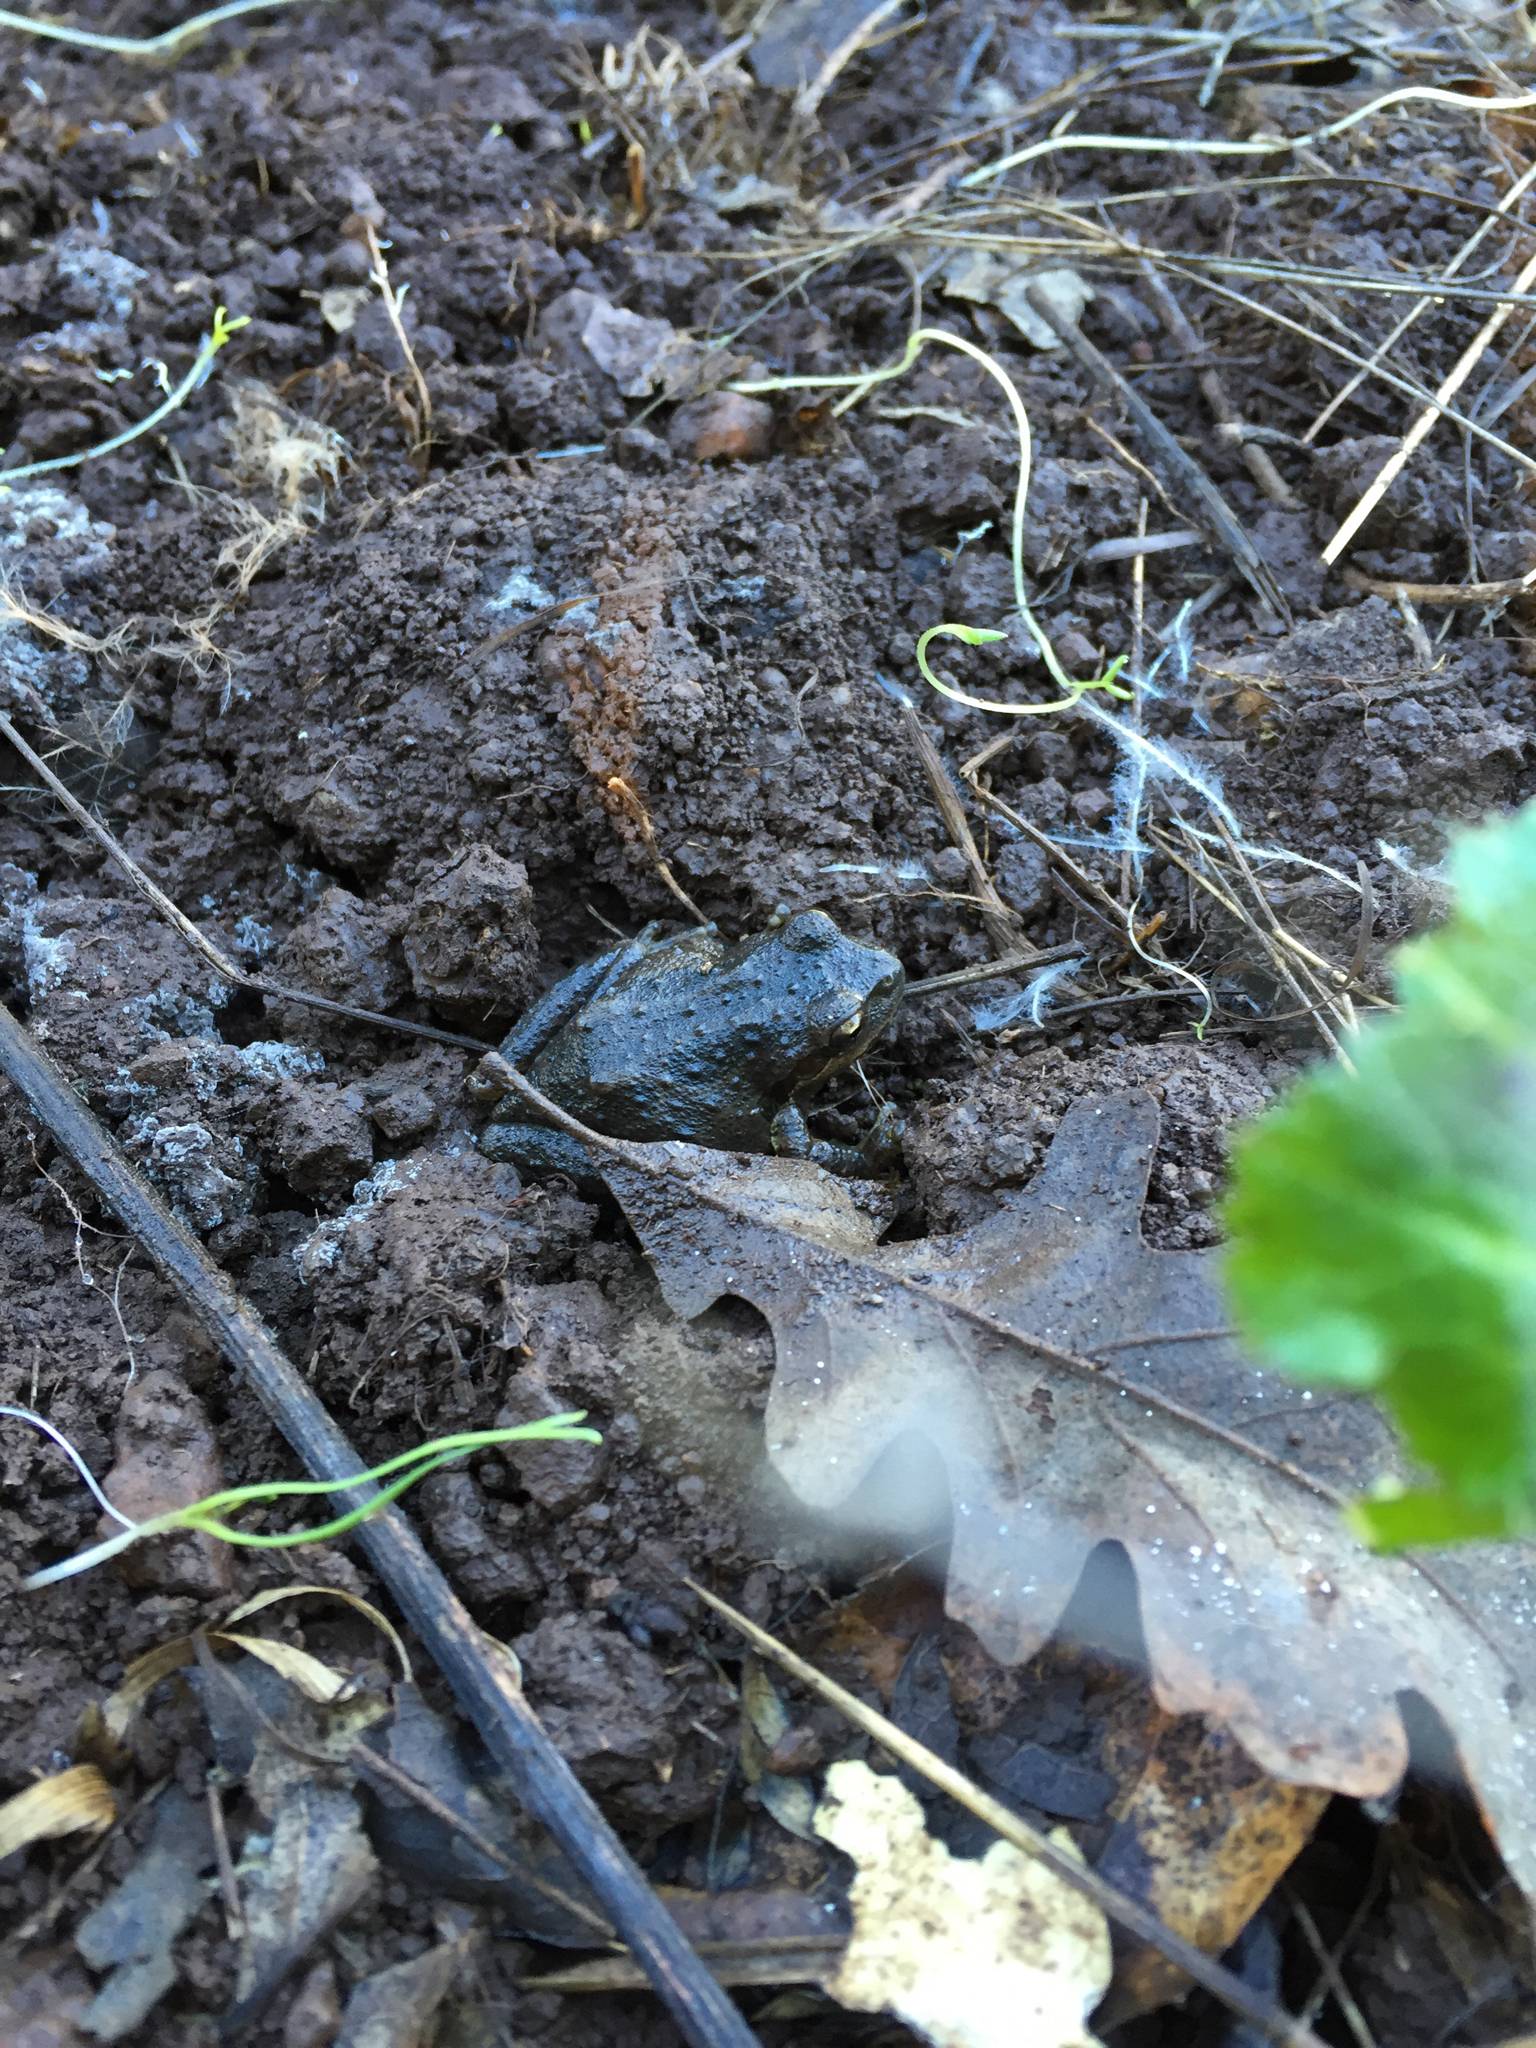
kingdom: Animalia
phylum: Chordata
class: Amphibia
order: Anura
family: Hylidae
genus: Pseudacris
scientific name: Pseudacris regilla
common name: Pacific chorus frog
